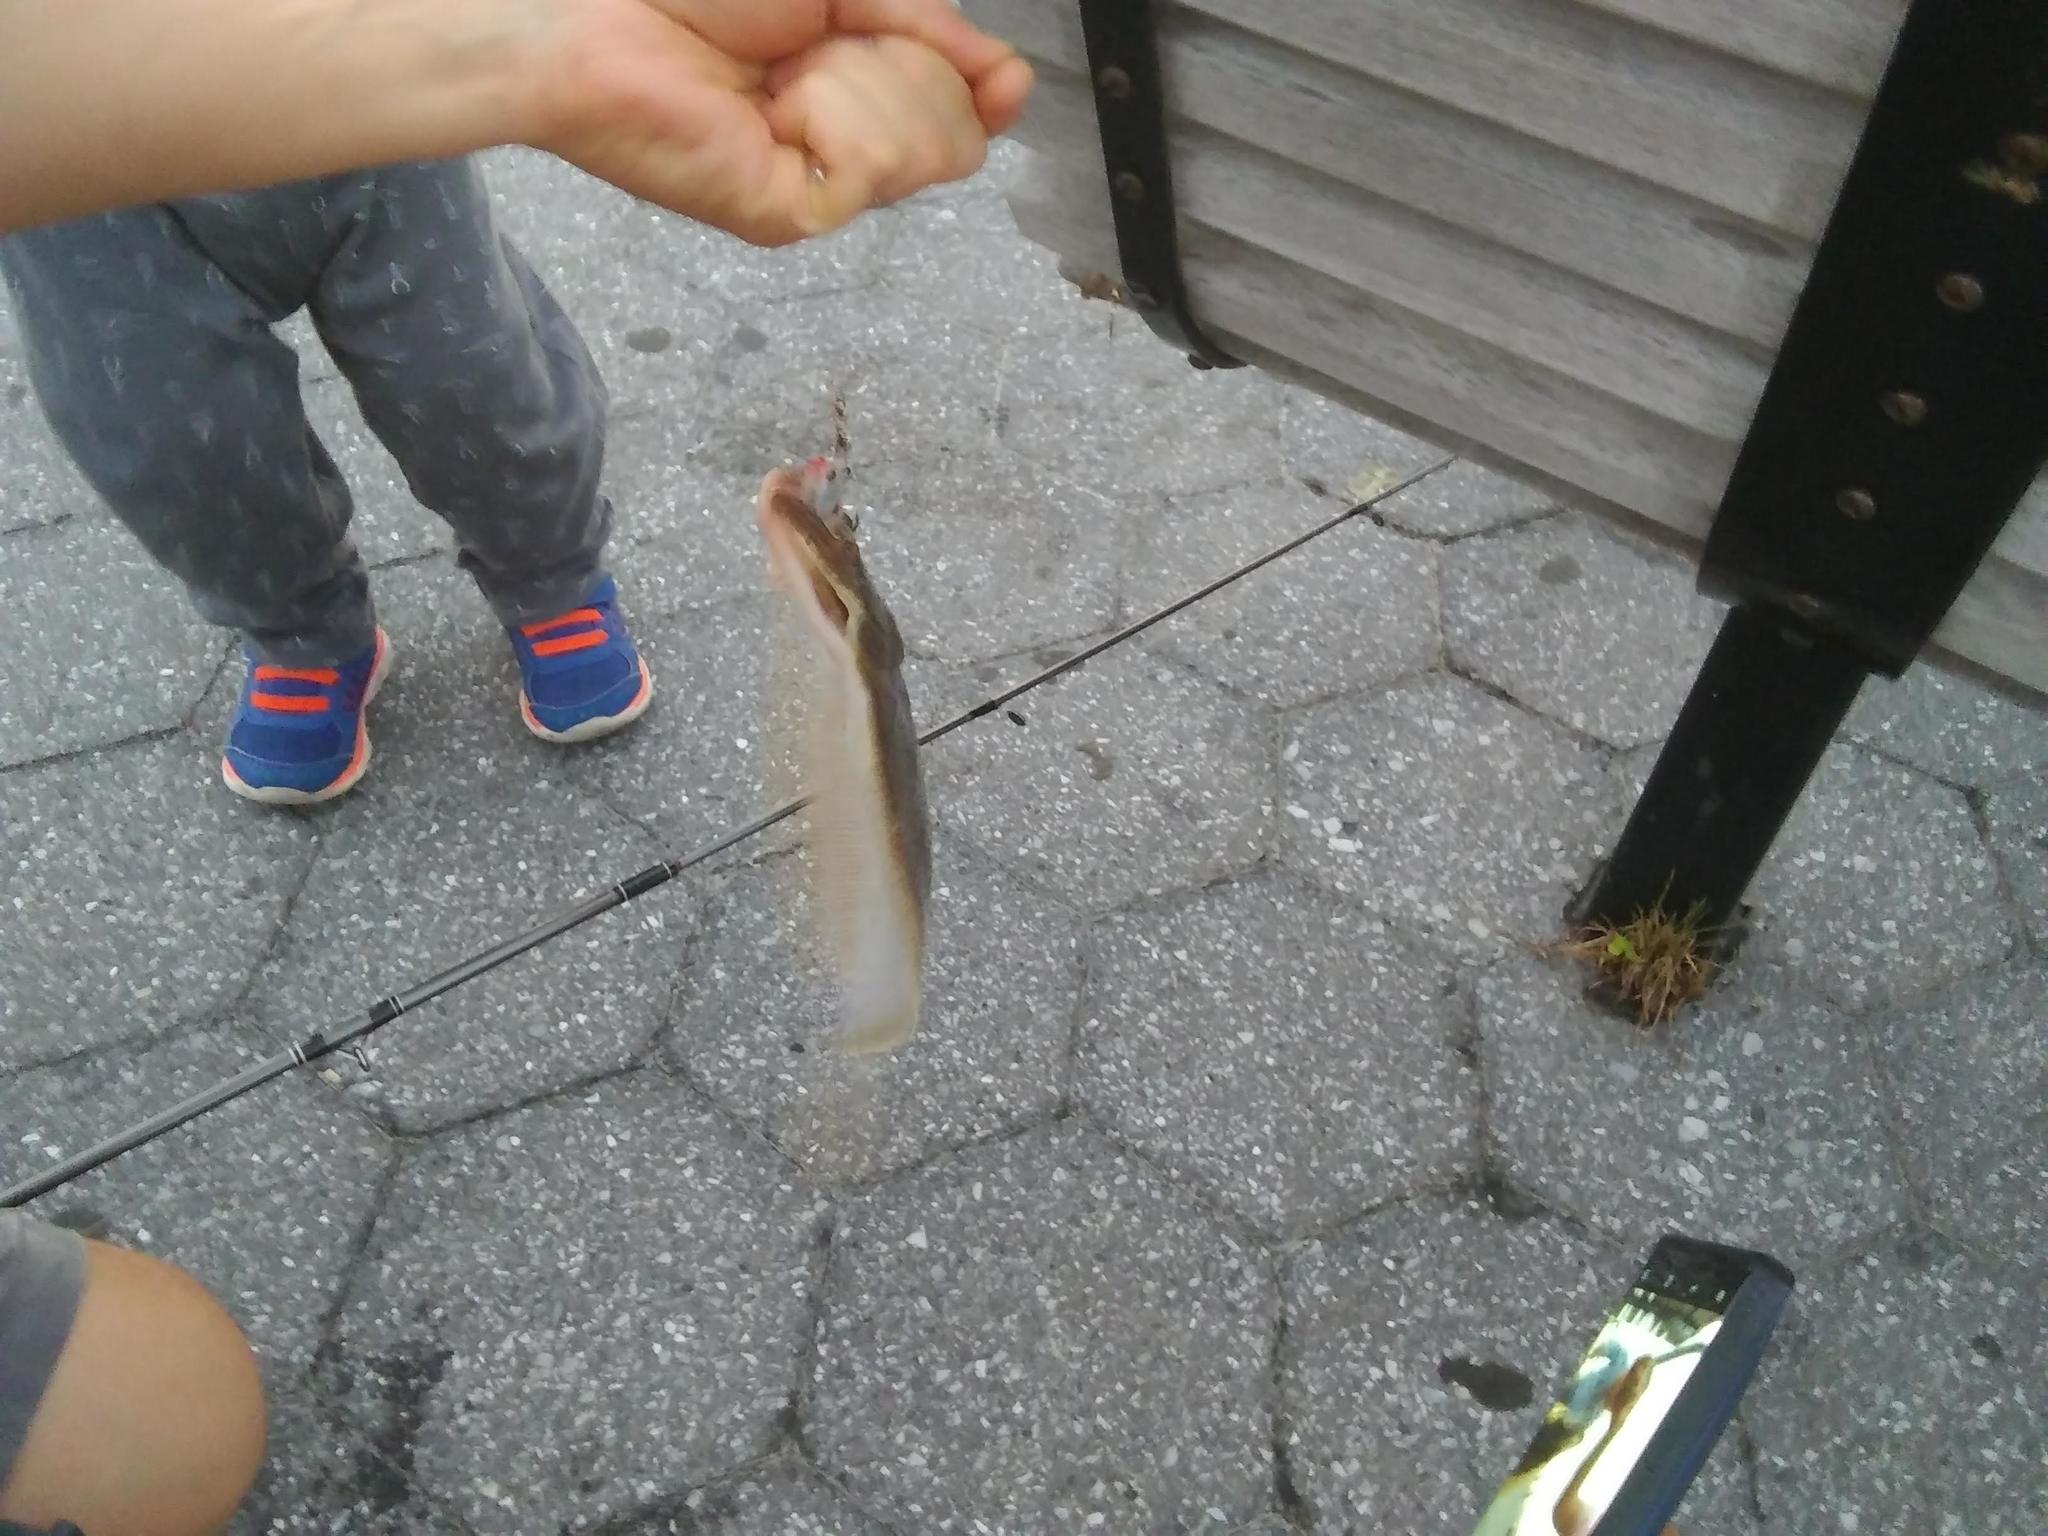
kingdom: Animalia
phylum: Chordata
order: Pleuronectiformes
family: Paralichthyidae
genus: Paralichthys
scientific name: Paralichthys dentatus
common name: Summer flounder
